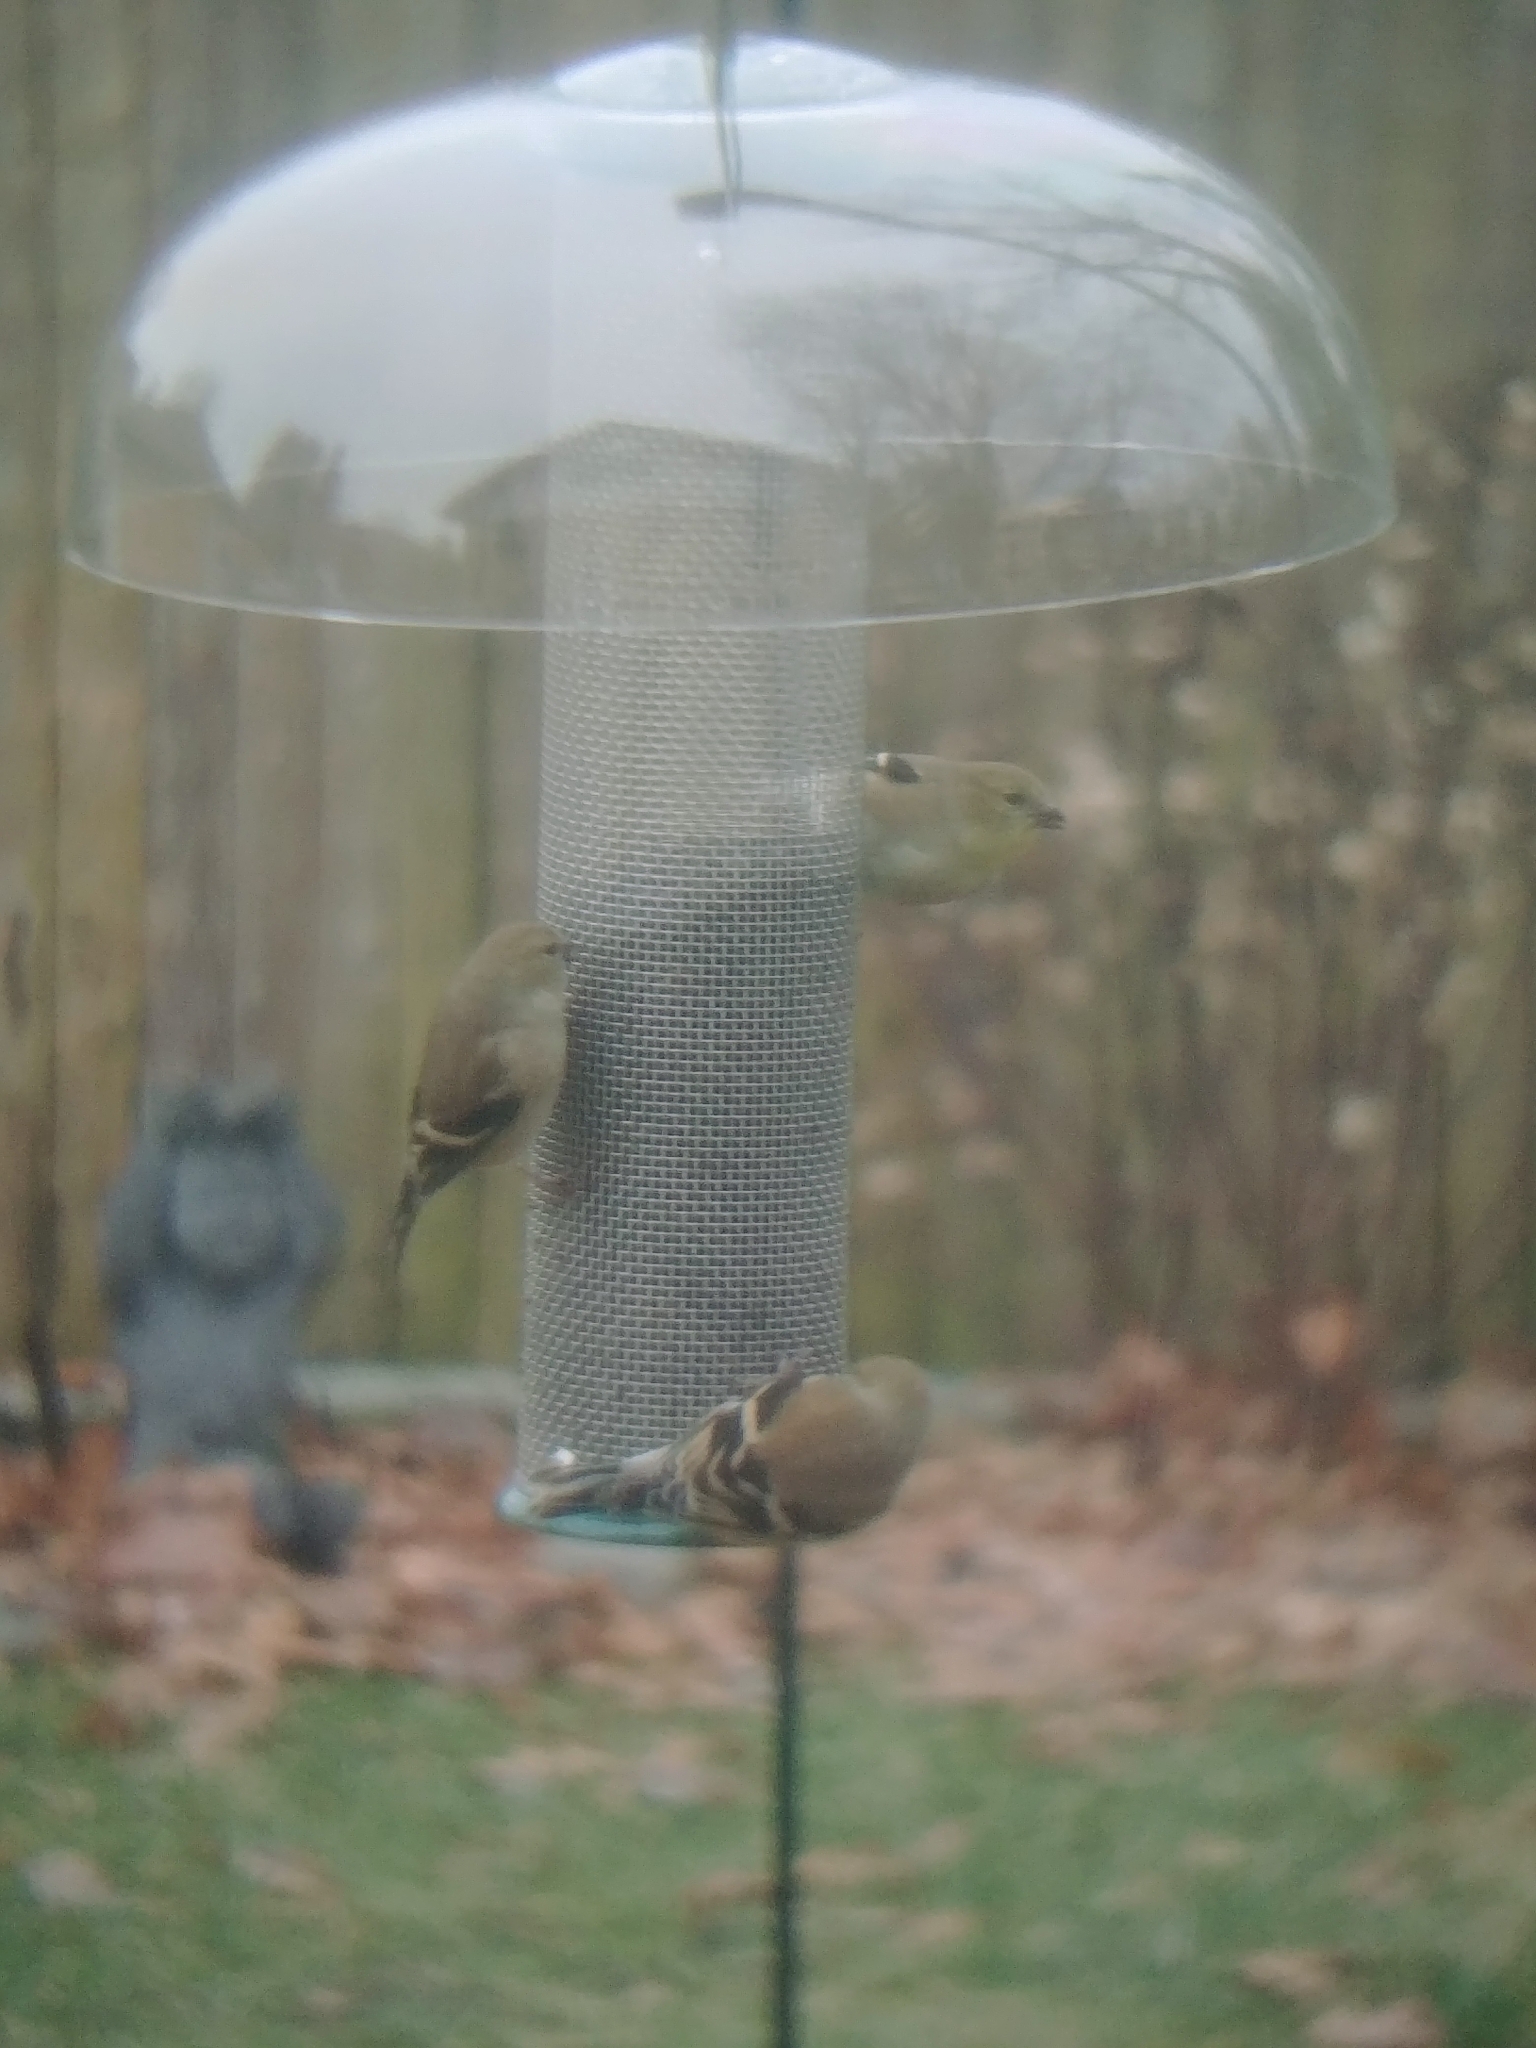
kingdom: Animalia
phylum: Chordata
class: Aves
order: Passeriformes
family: Fringillidae
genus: Spinus
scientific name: Spinus tristis
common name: American goldfinch
